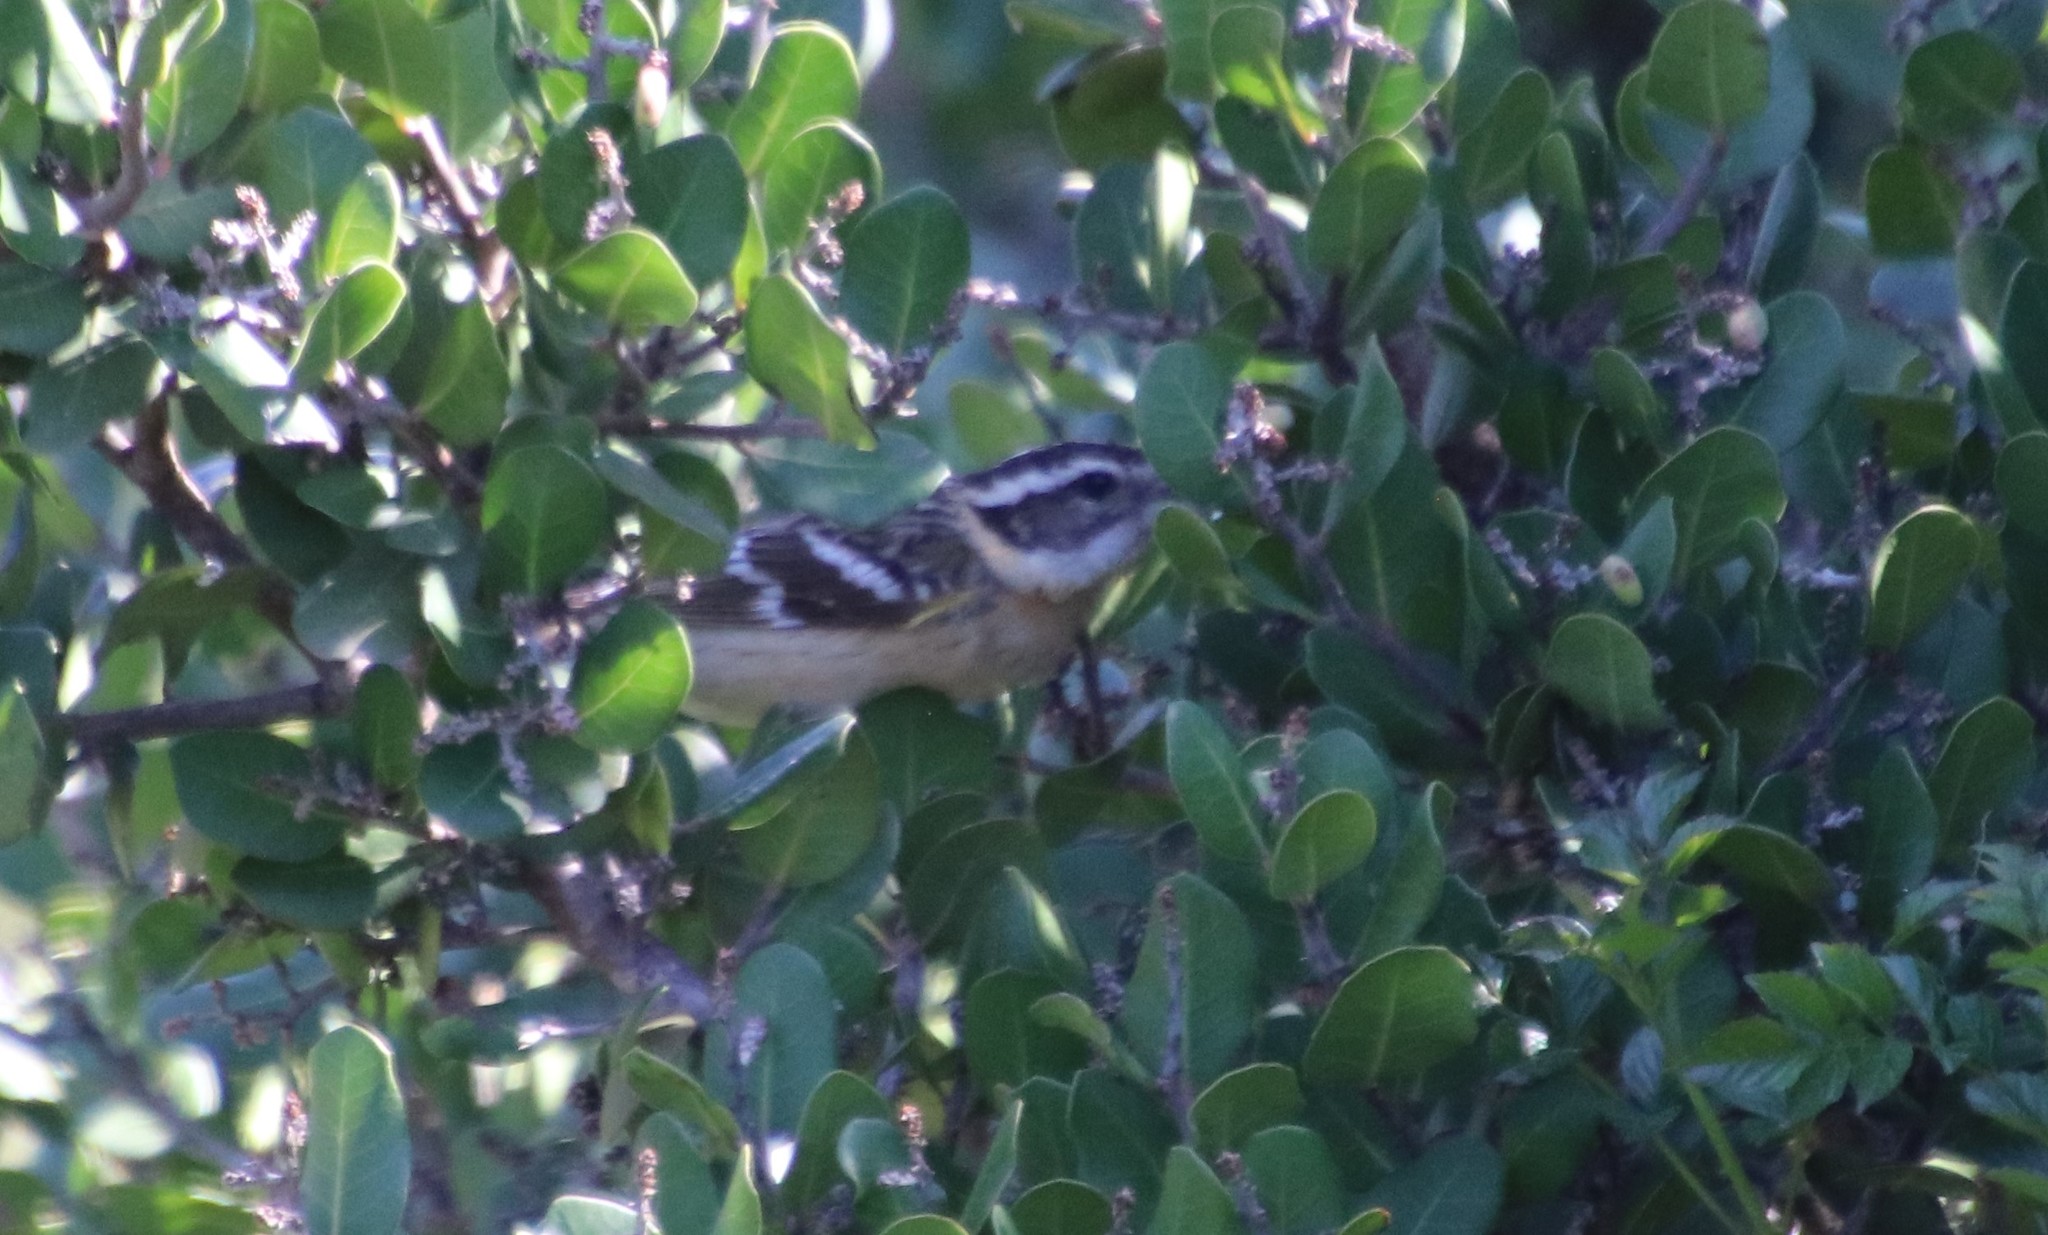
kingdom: Animalia
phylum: Chordata
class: Aves
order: Passeriformes
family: Cardinalidae
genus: Pheucticus
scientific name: Pheucticus melanocephalus
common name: Black-headed grosbeak
